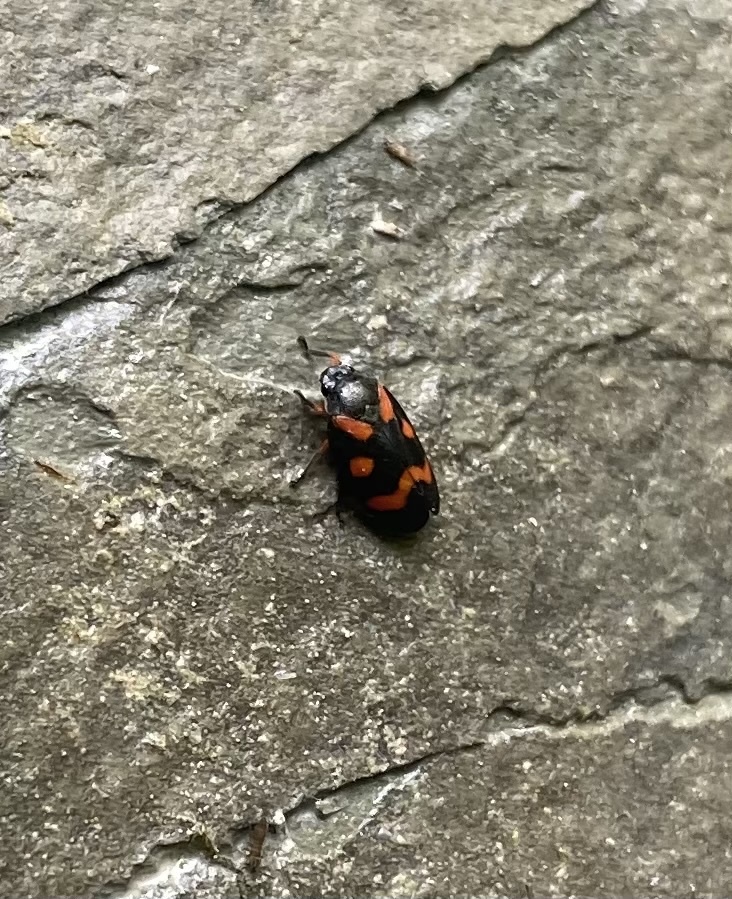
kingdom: Animalia
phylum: Arthropoda
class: Insecta
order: Hemiptera
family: Cercopidae
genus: Cercopis
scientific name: Cercopis intermedia
